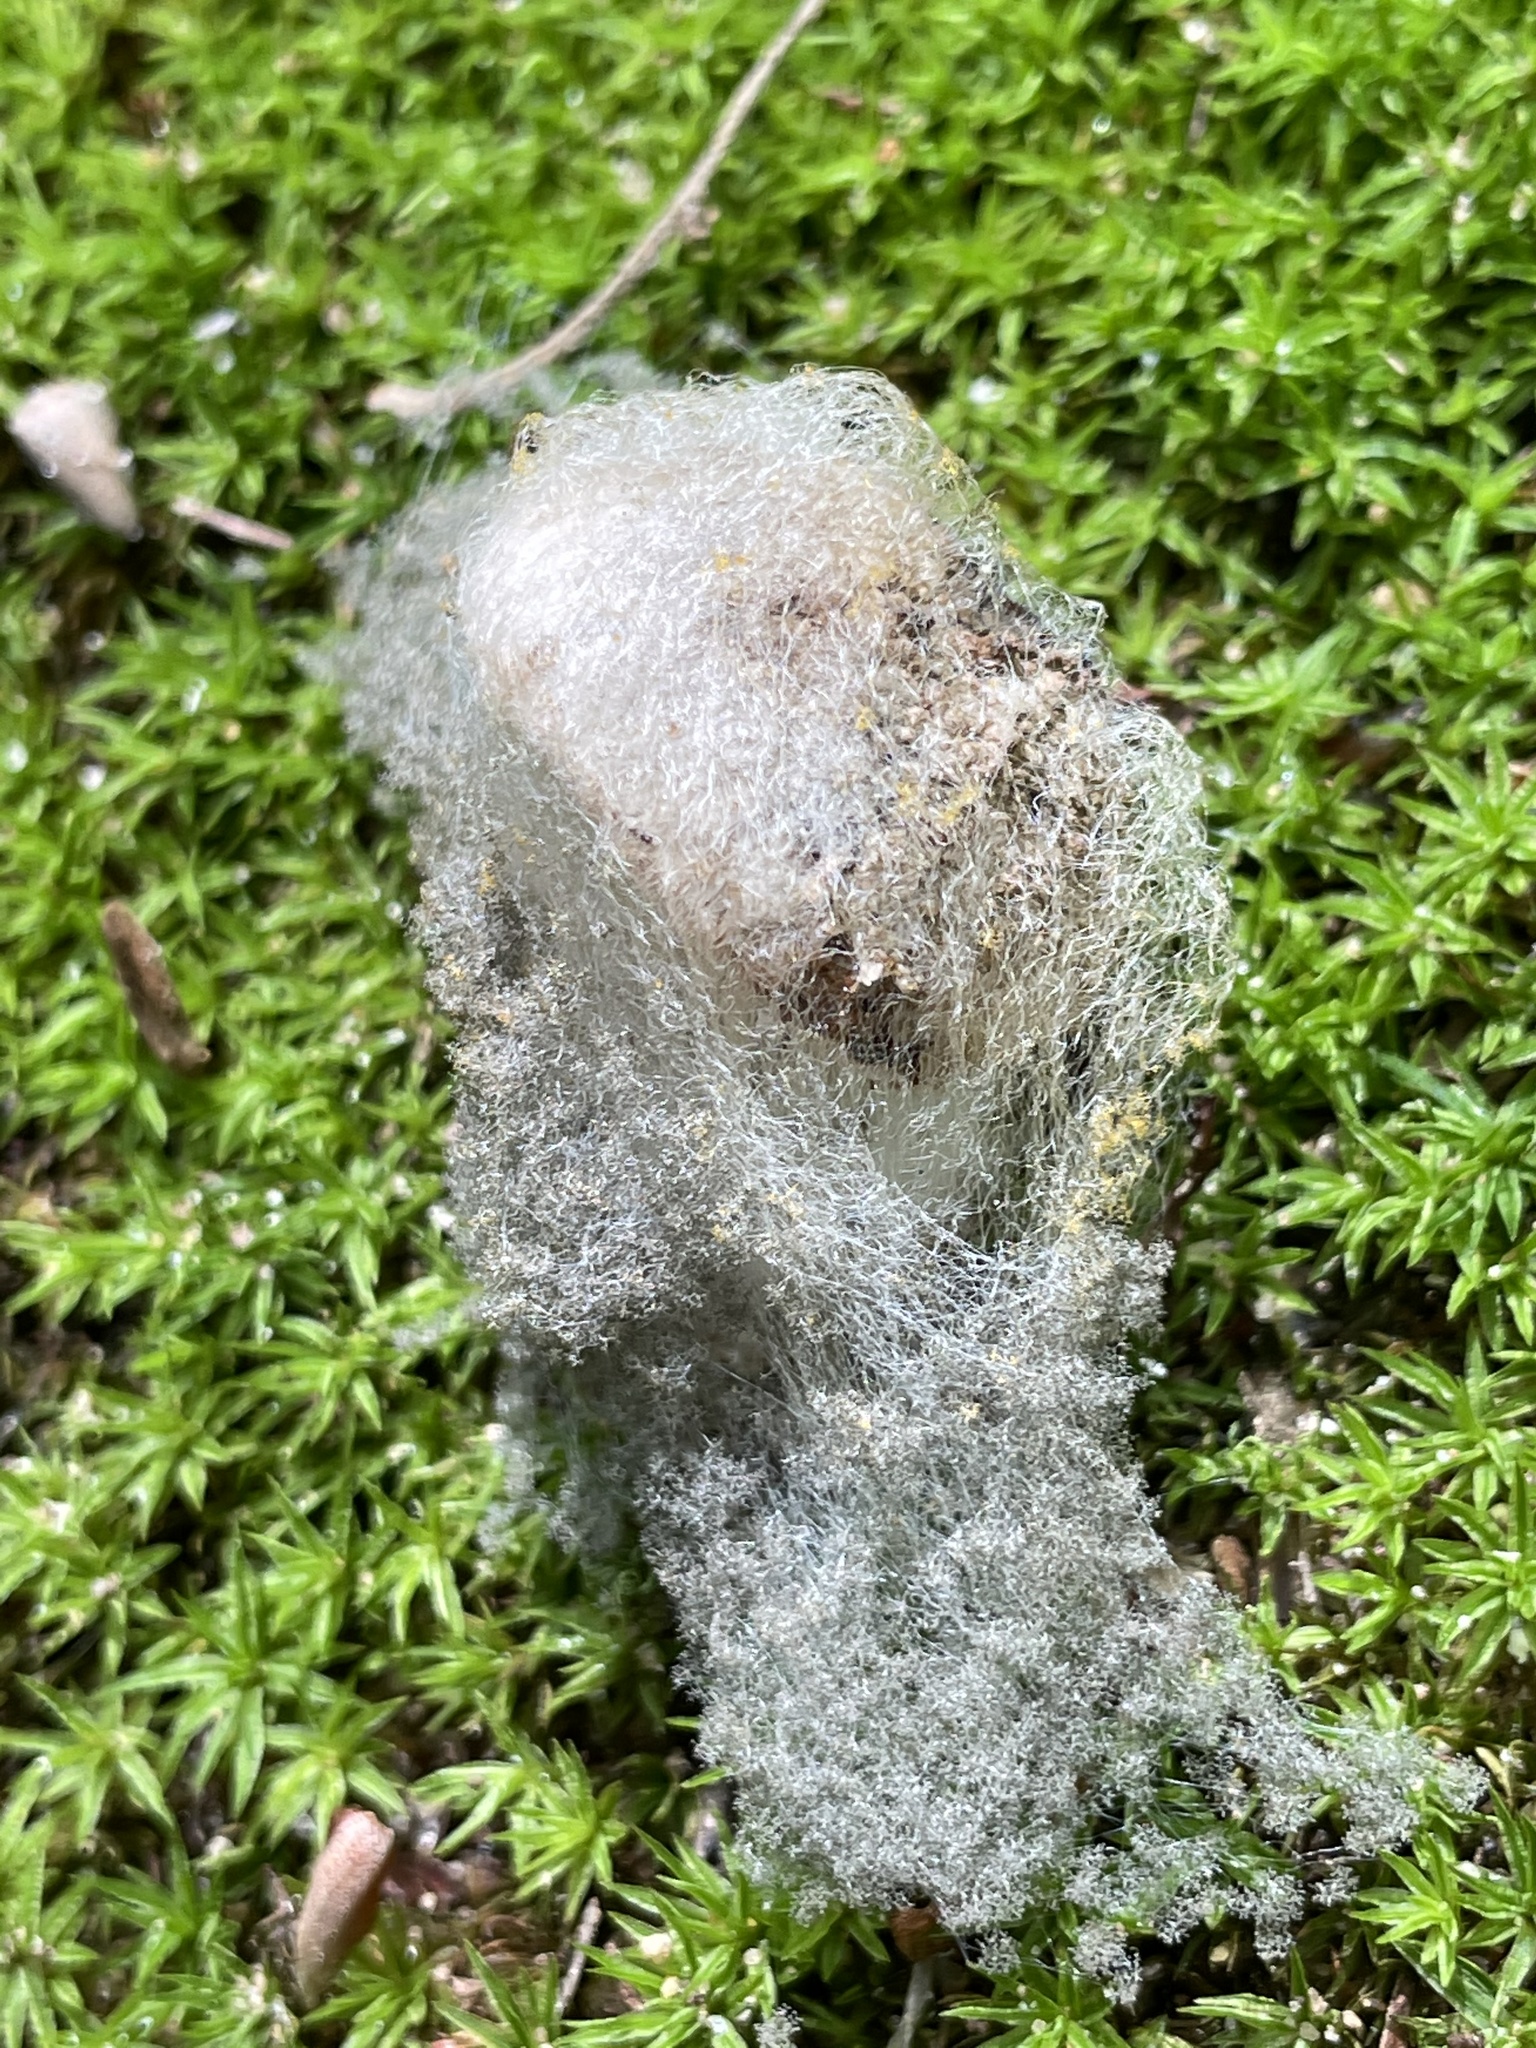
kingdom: Fungi
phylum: Mucoromycota
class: Mucoromycetes
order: Mucorales
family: Rhizopodaceae
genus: Syzygites
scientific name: Syzygites megalocarpus
